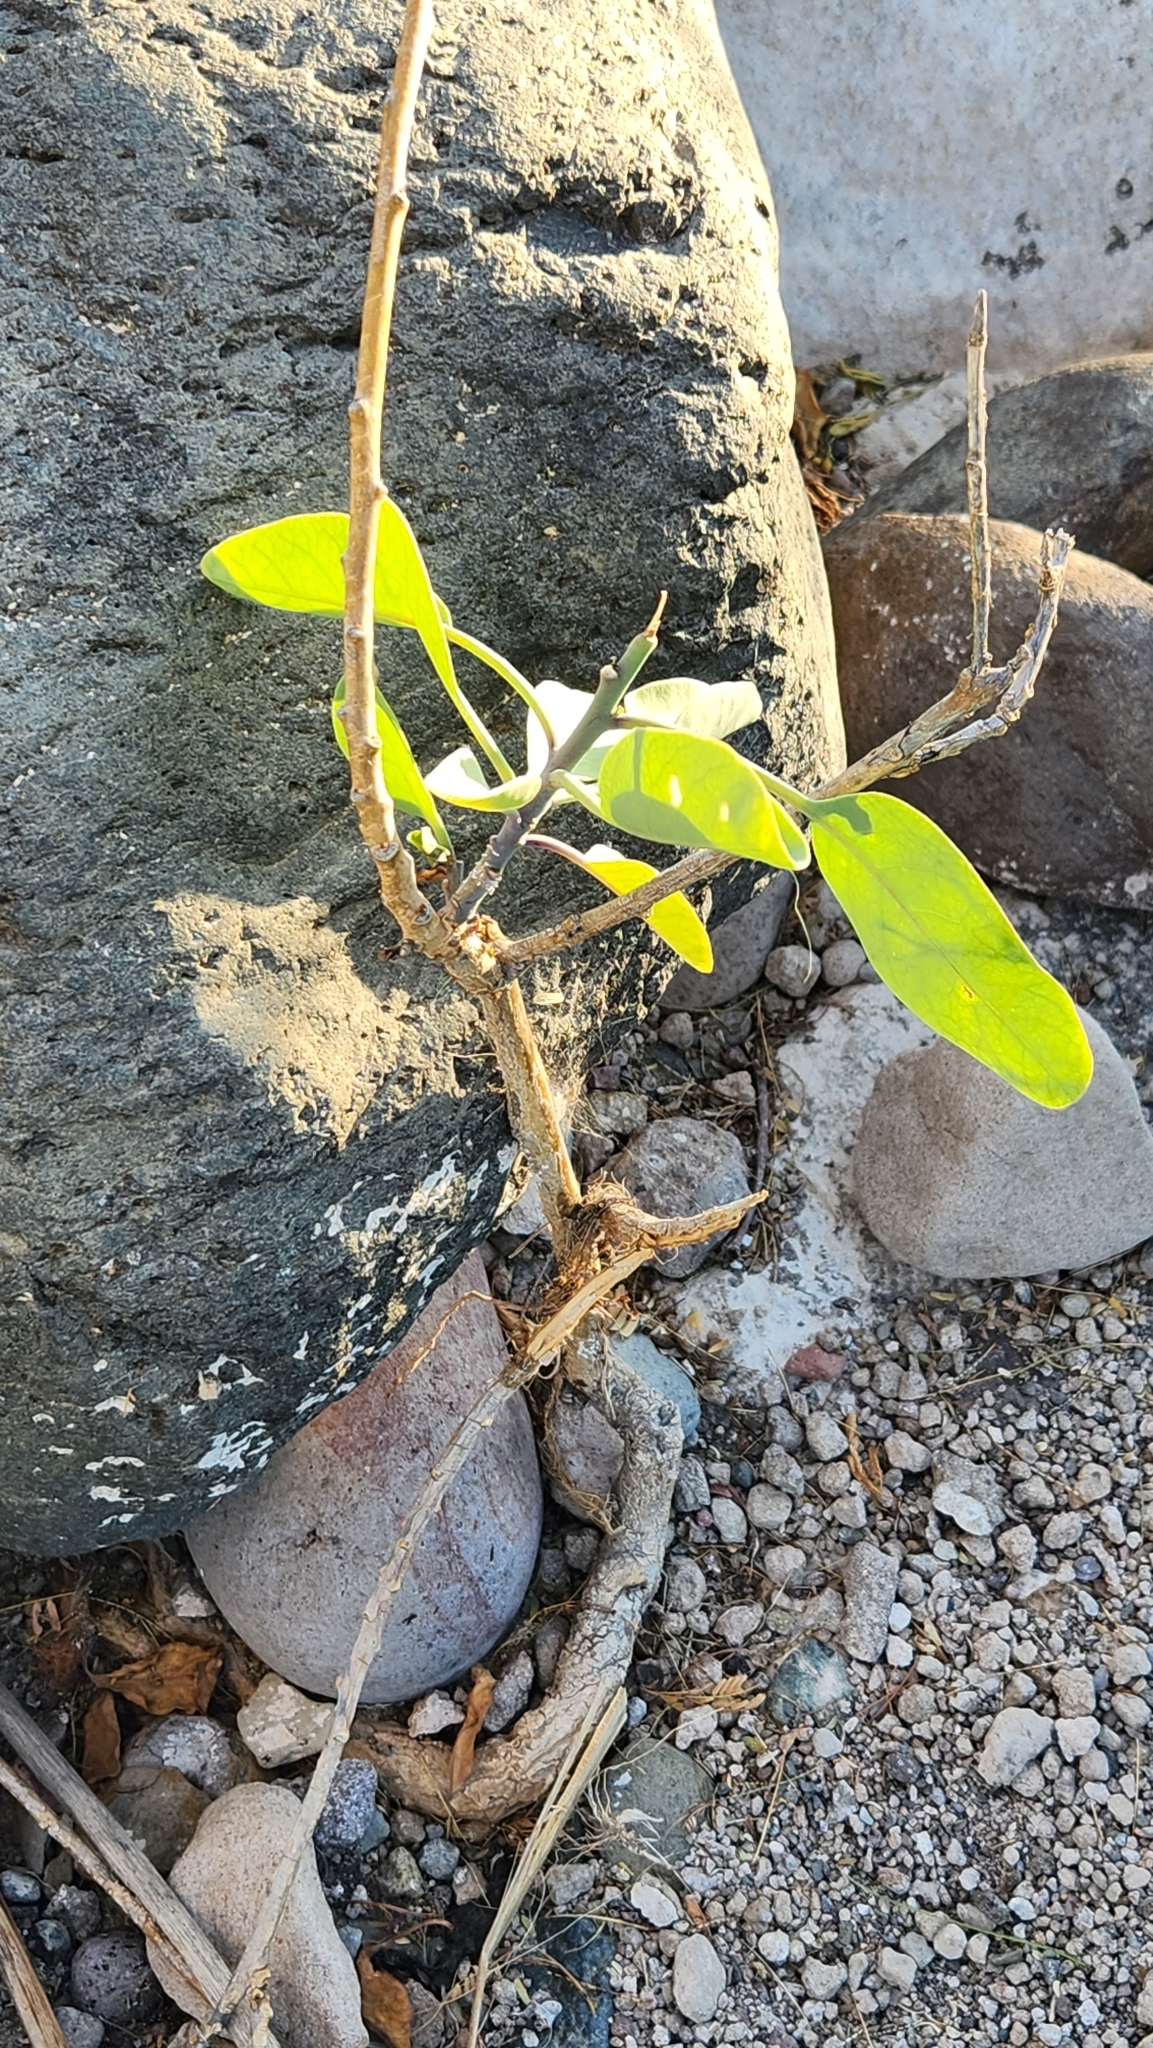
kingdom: Plantae
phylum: Tracheophyta
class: Magnoliopsida
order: Solanales
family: Solanaceae
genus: Nicotiana
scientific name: Nicotiana glauca
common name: Tree tobacco
